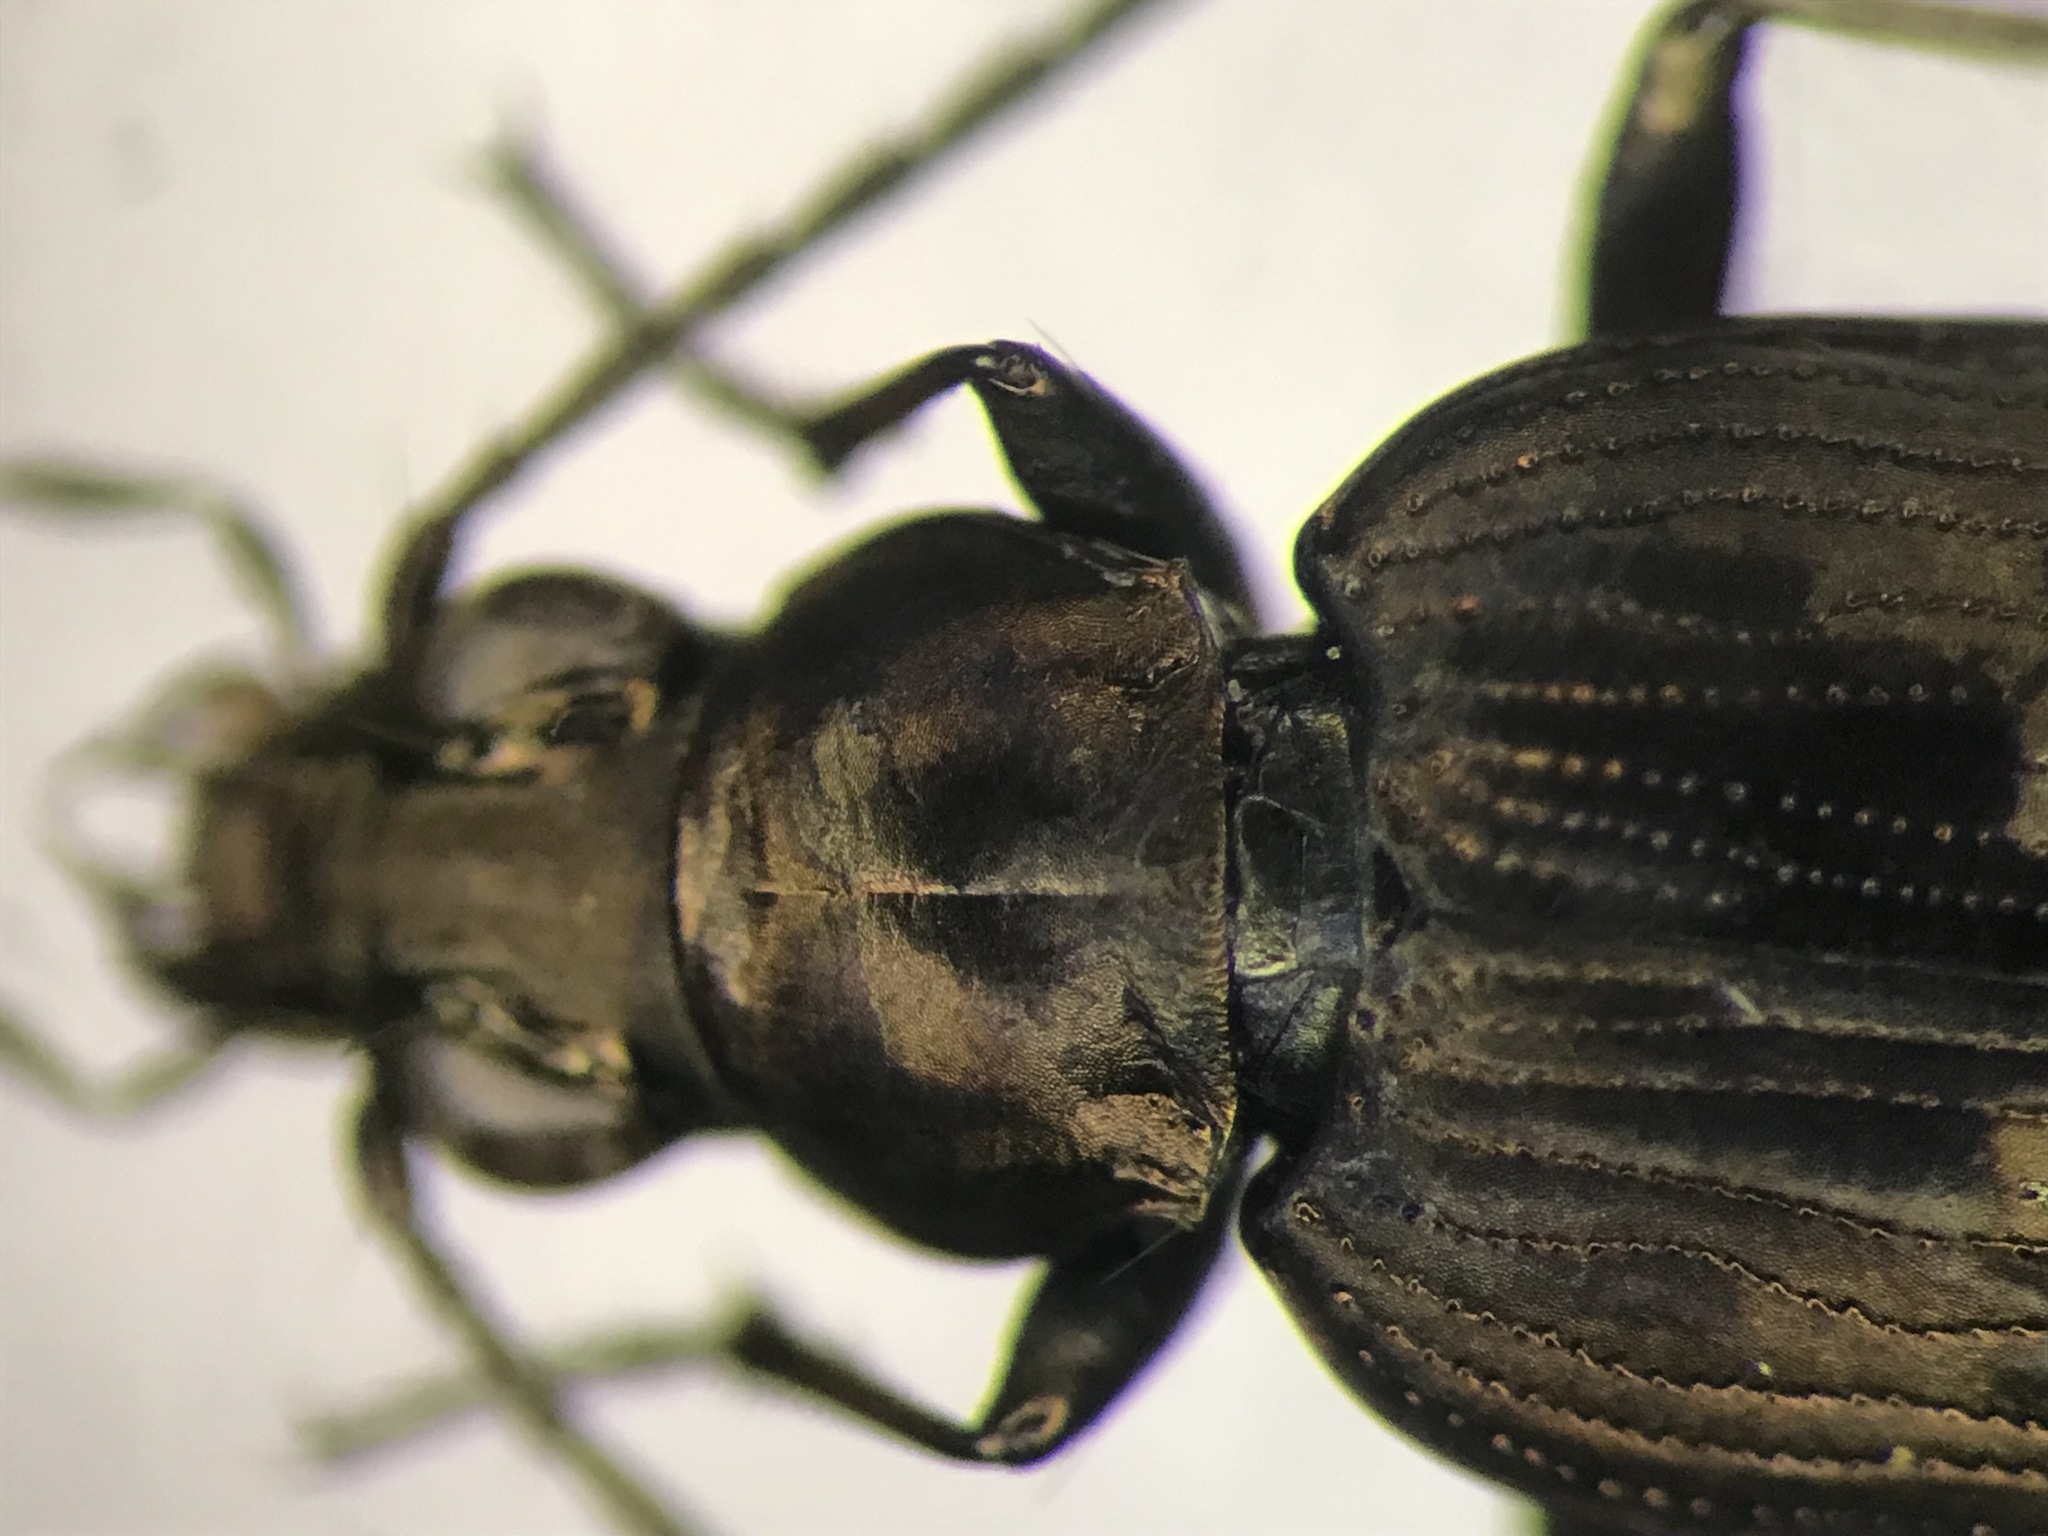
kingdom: Animalia
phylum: Arthropoda
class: Insecta
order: Coleoptera
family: Carabidae
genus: Bembidion
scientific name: Bembidion inaequale
